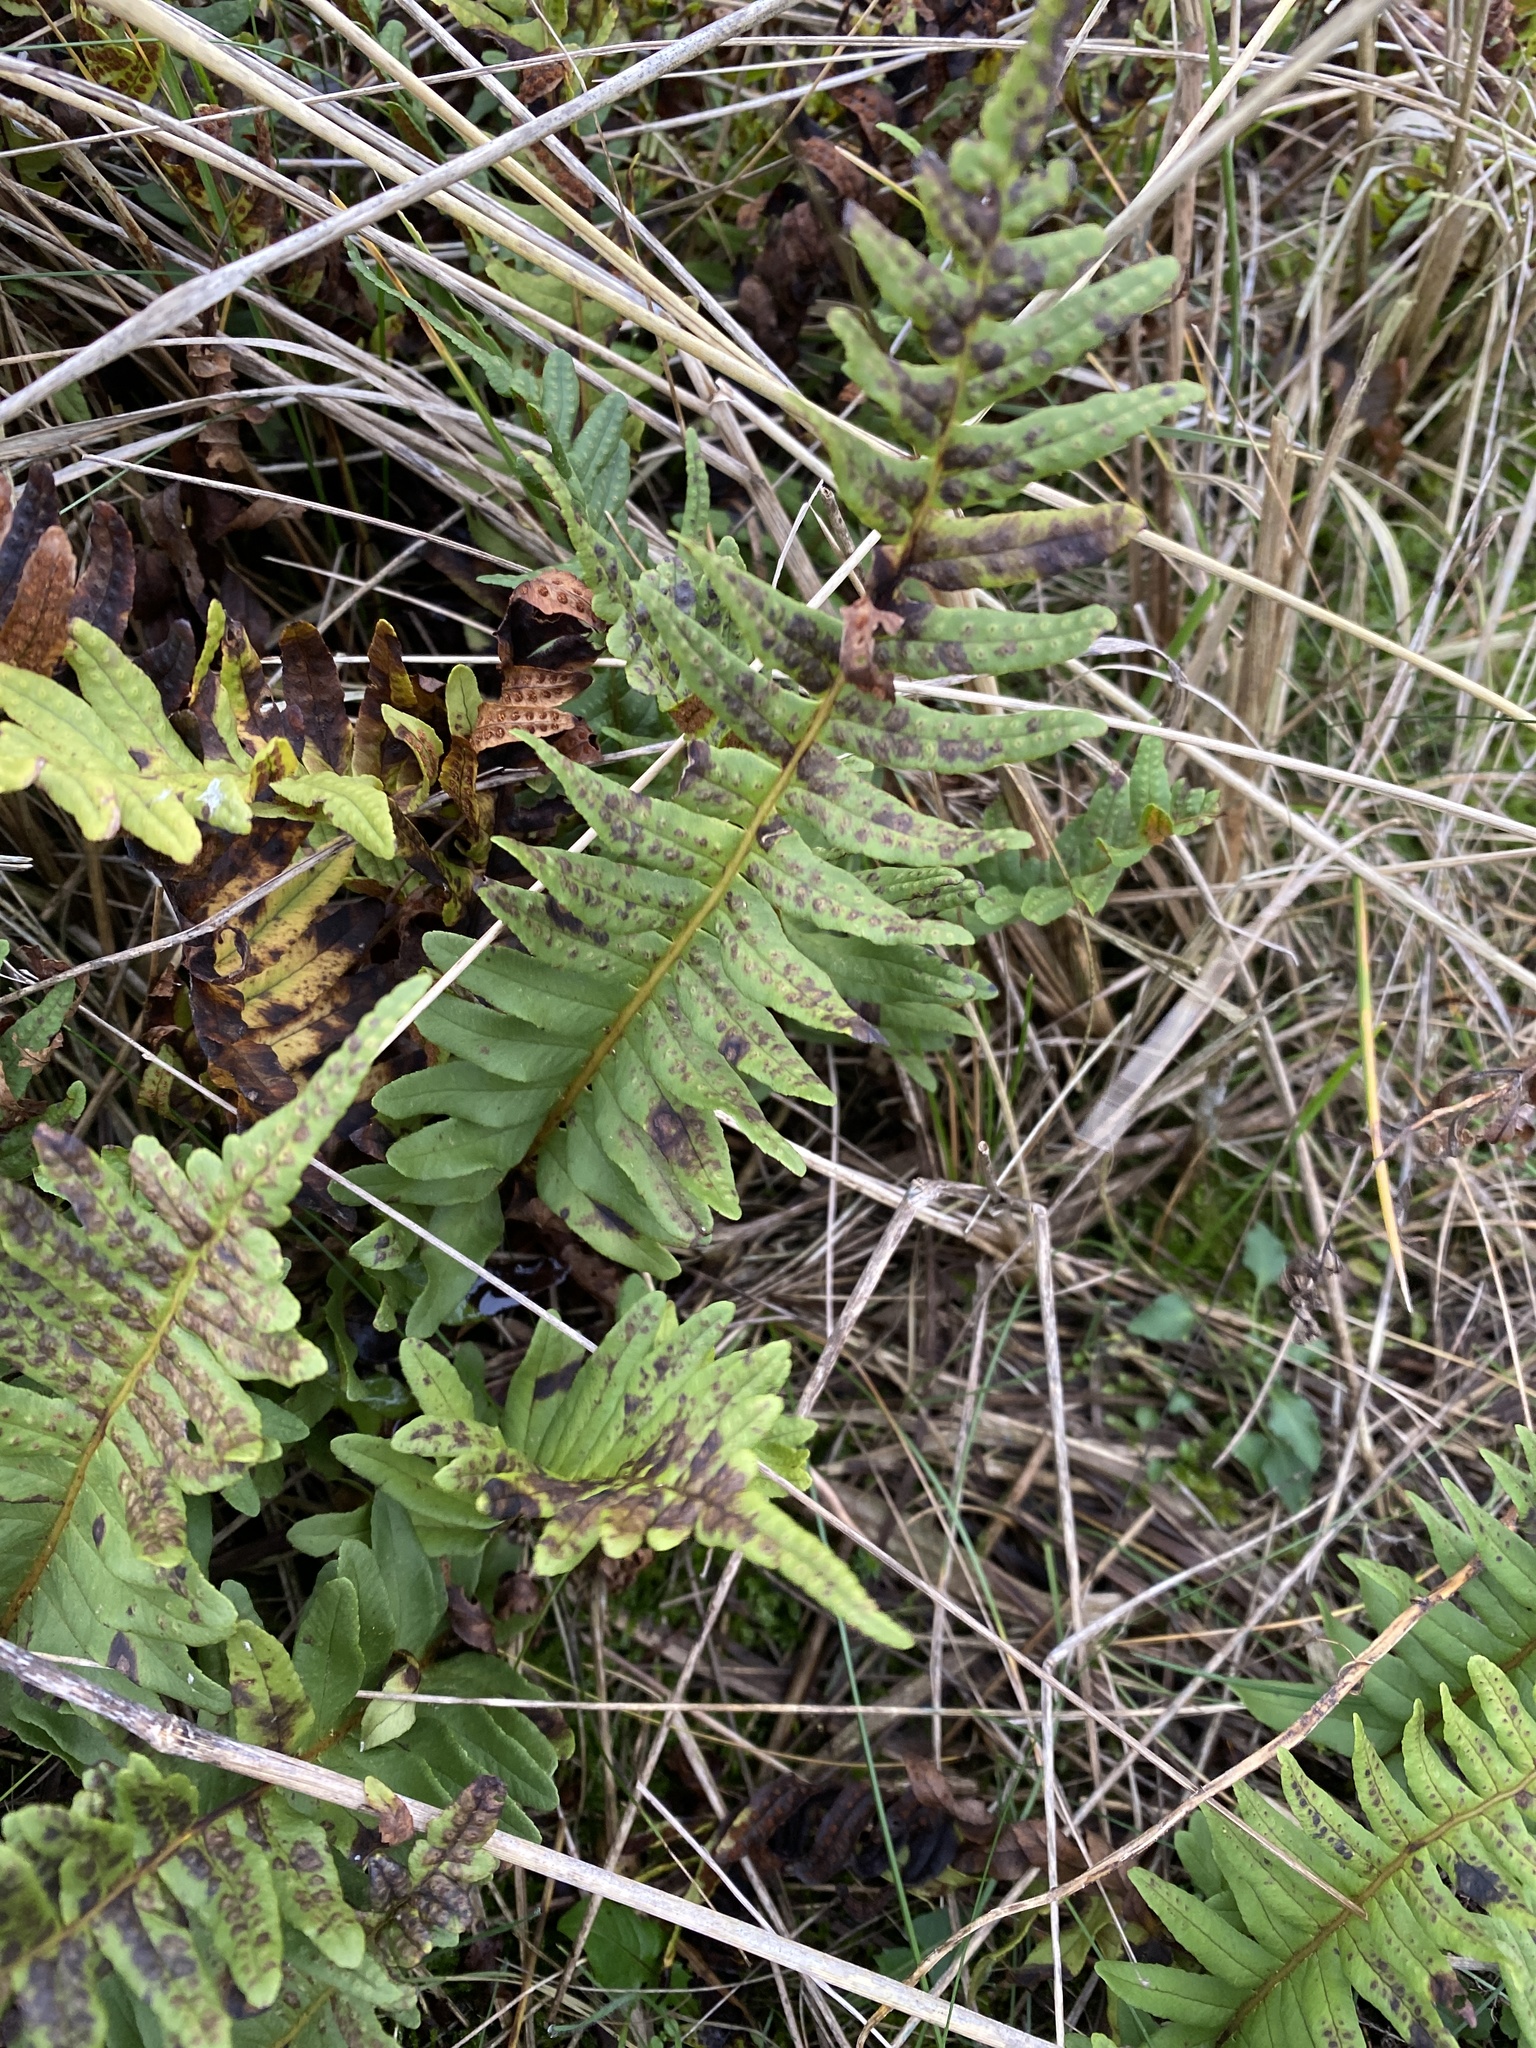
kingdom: Plantae
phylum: Tracheophyta
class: Polypodiopsida
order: Polypodiales
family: Polypodiaceae
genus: Polypodium
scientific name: Polypodium vulgare
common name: Common polypody
